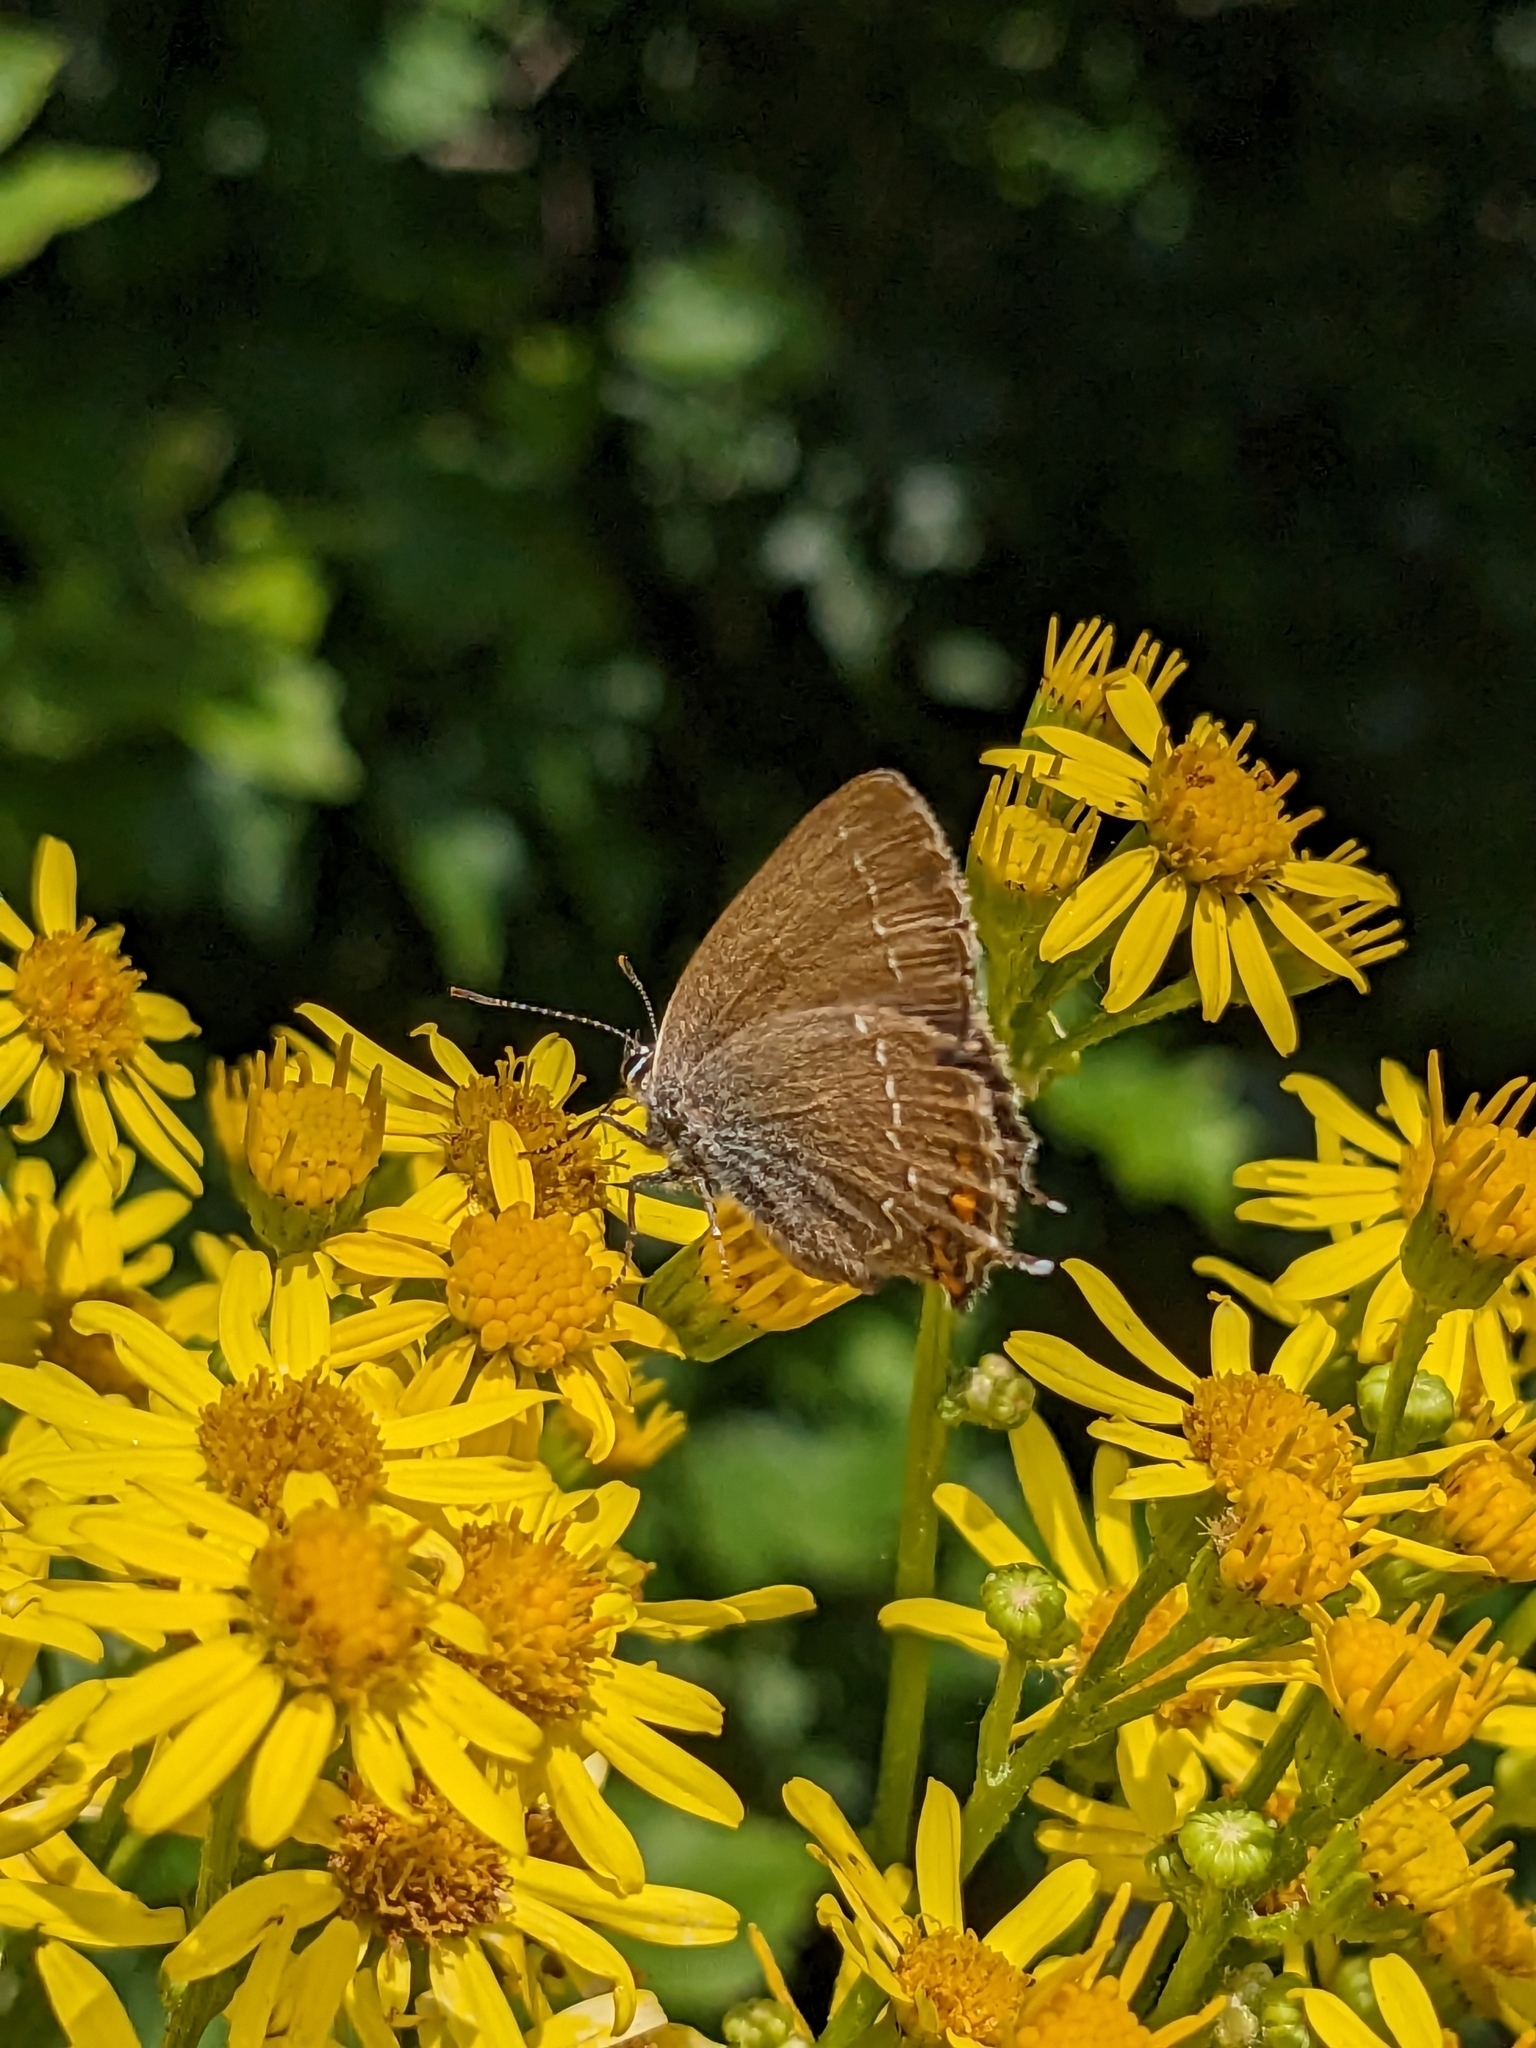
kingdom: Animalia
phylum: Arthropoda
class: Insecta
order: Lepidoptera
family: Lycaenidae
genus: Nordmannia
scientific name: Nordmannia ilicis
